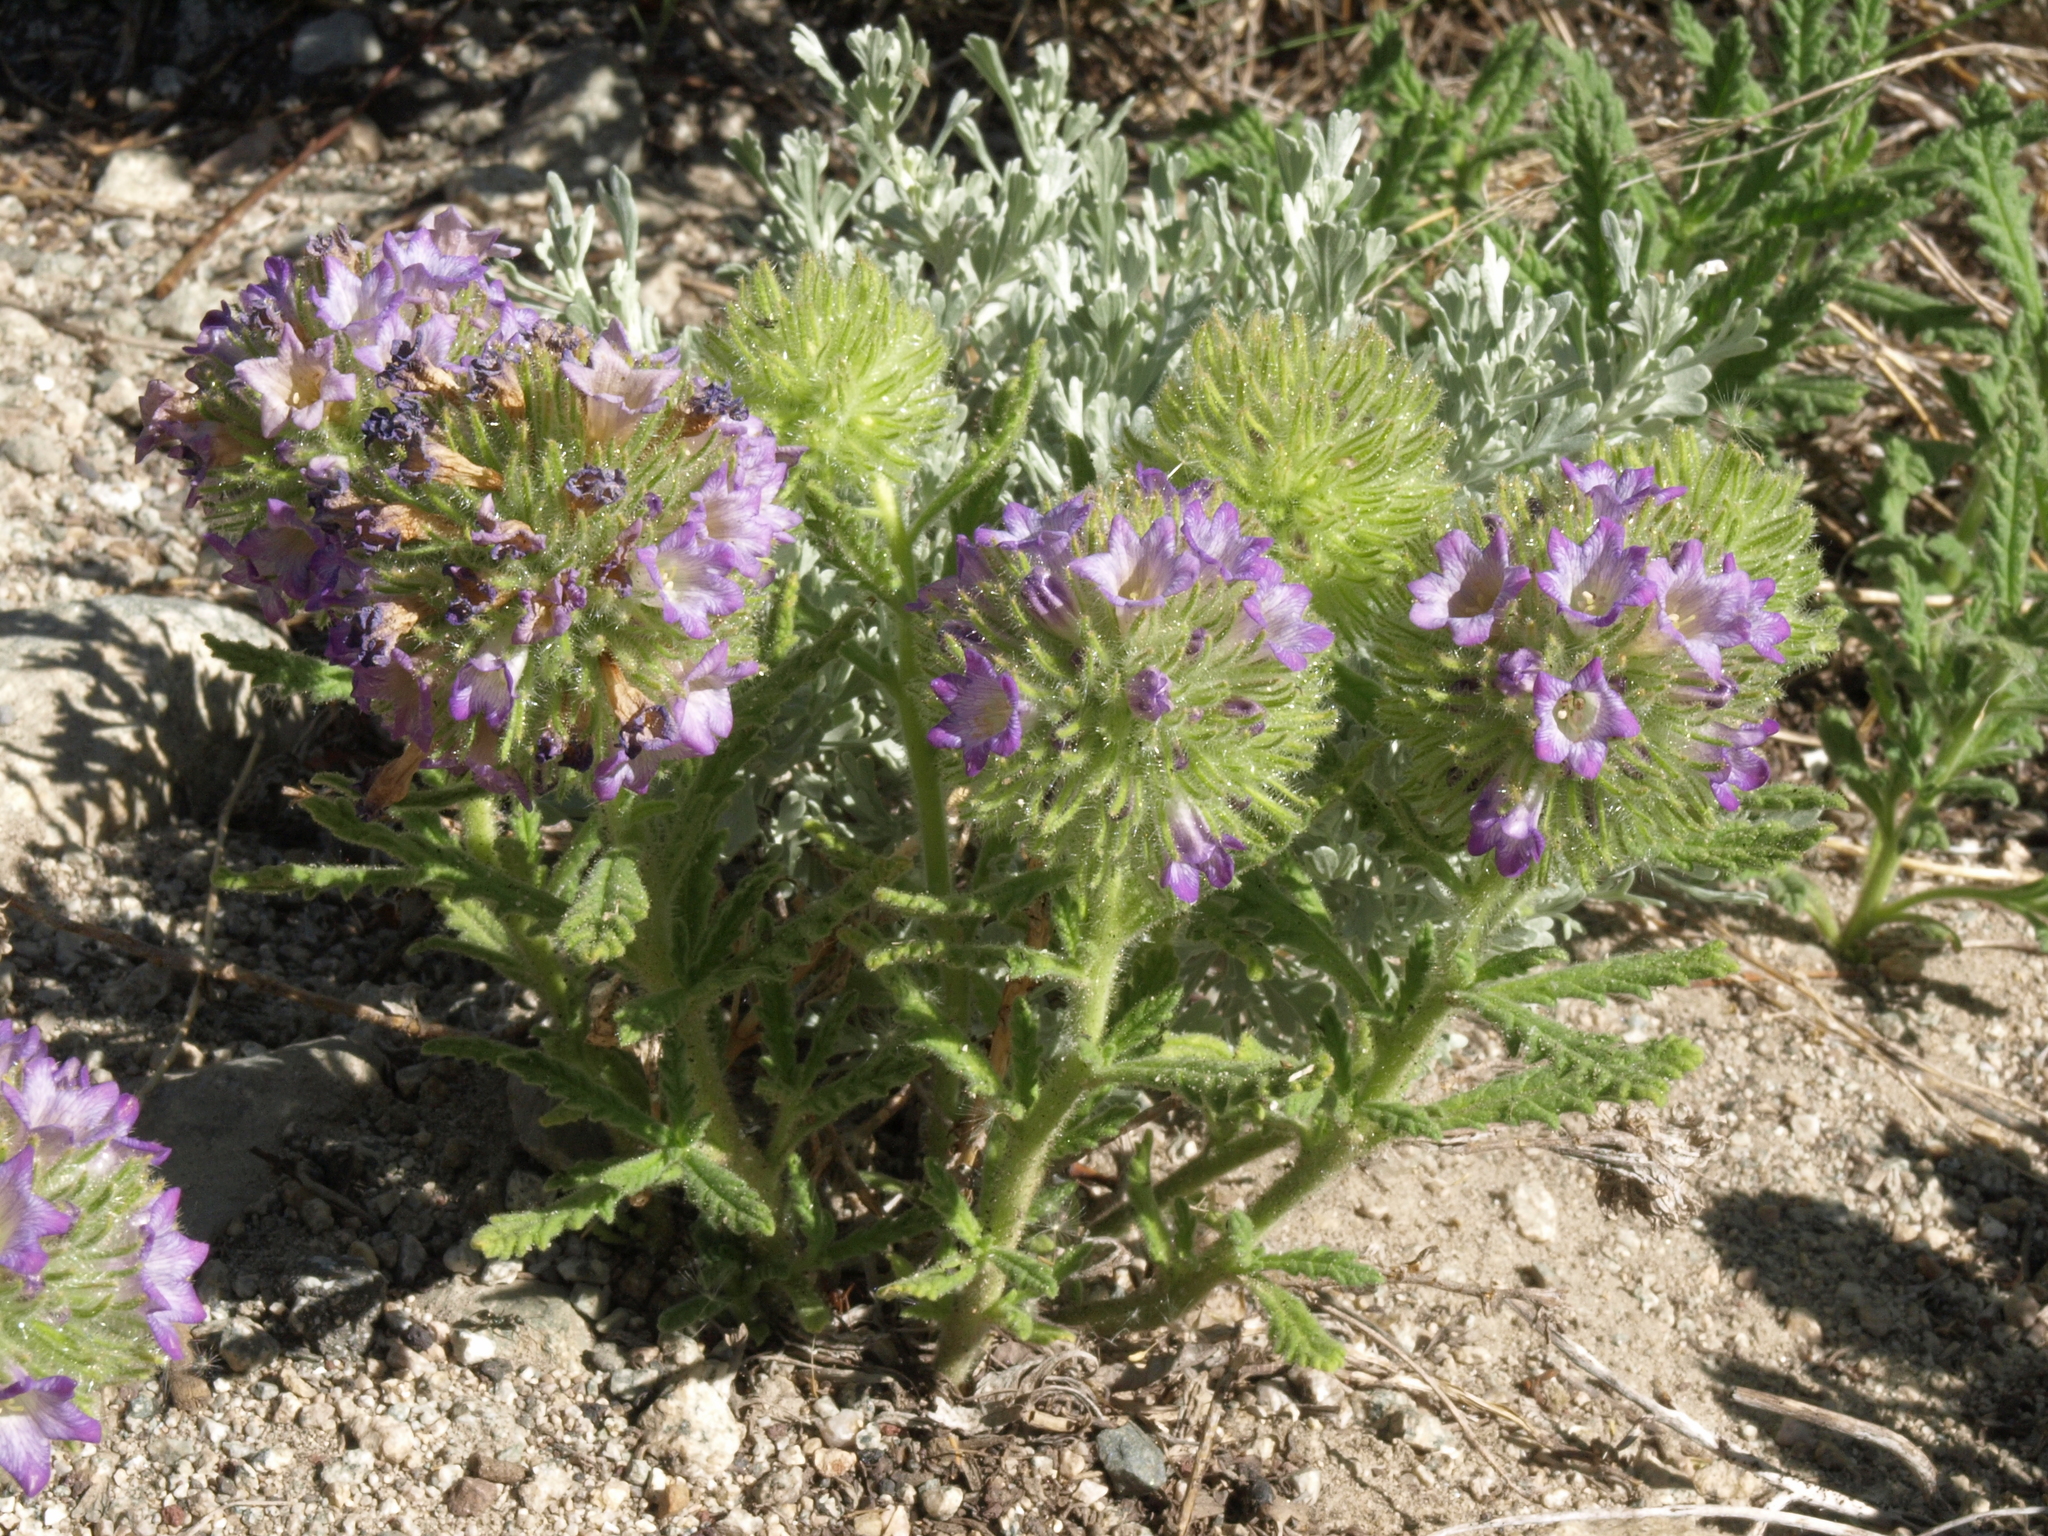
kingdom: Plantae
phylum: Tracheophyta
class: Magnoliopsida
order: Boraginales
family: Namaceae
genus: Nama
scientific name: Nama rothrockii
